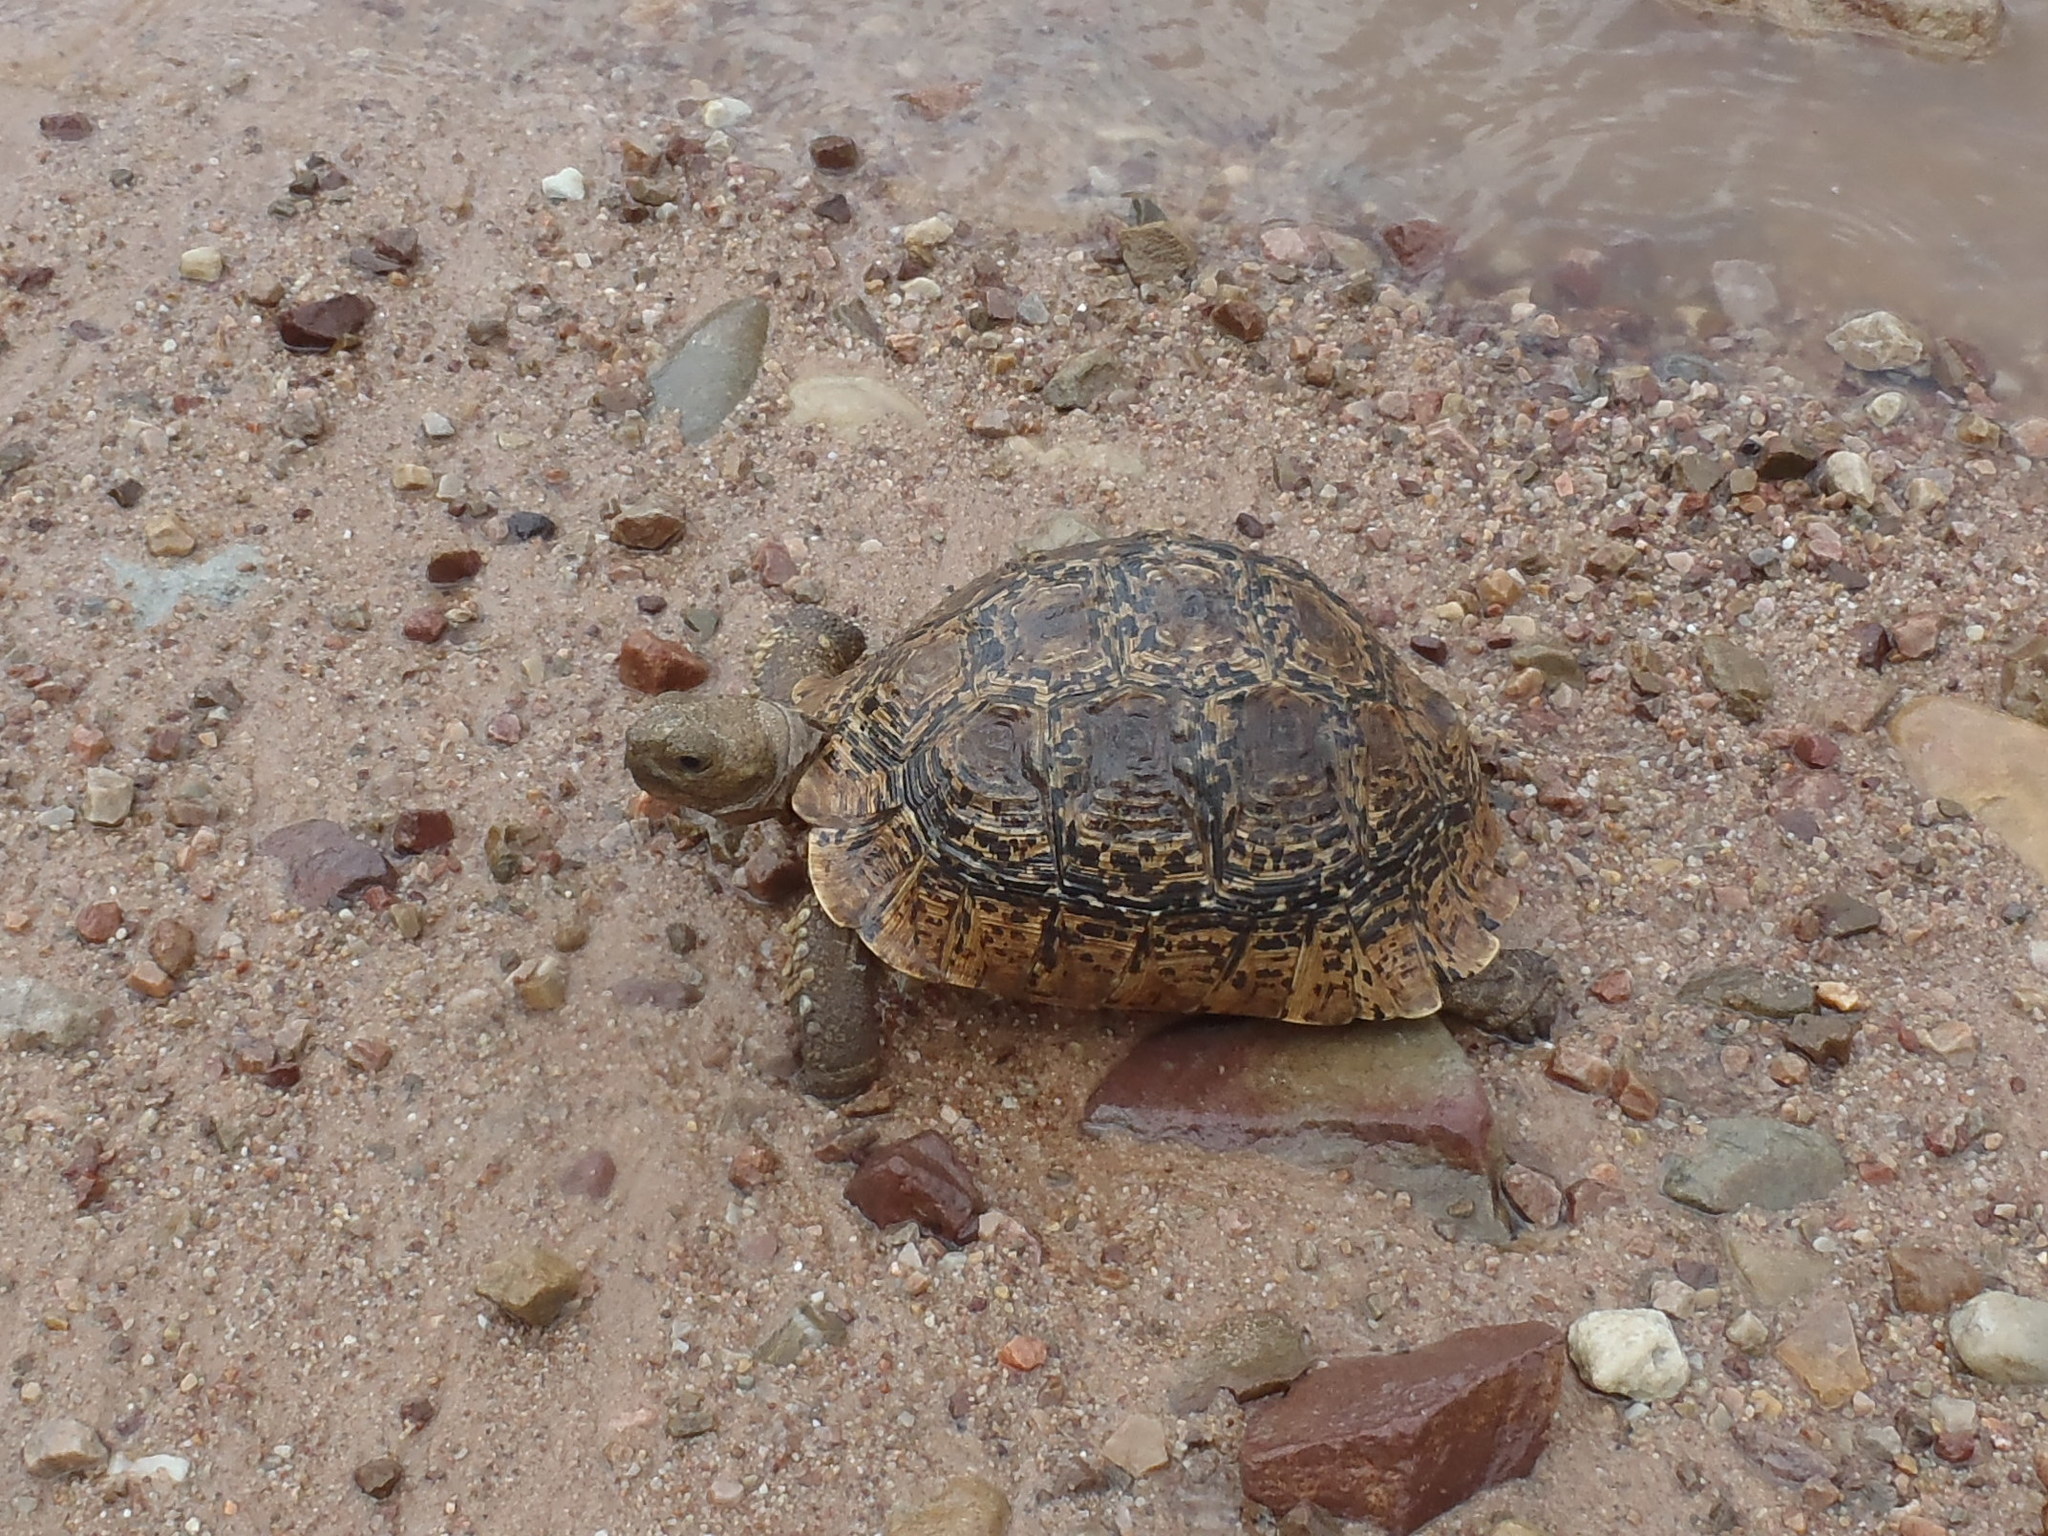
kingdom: Animalia
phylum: Chordata
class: Testudines
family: Testudinidae
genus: Stigmochelys
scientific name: Stigmochelys pardalis
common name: Leopard tortoise
